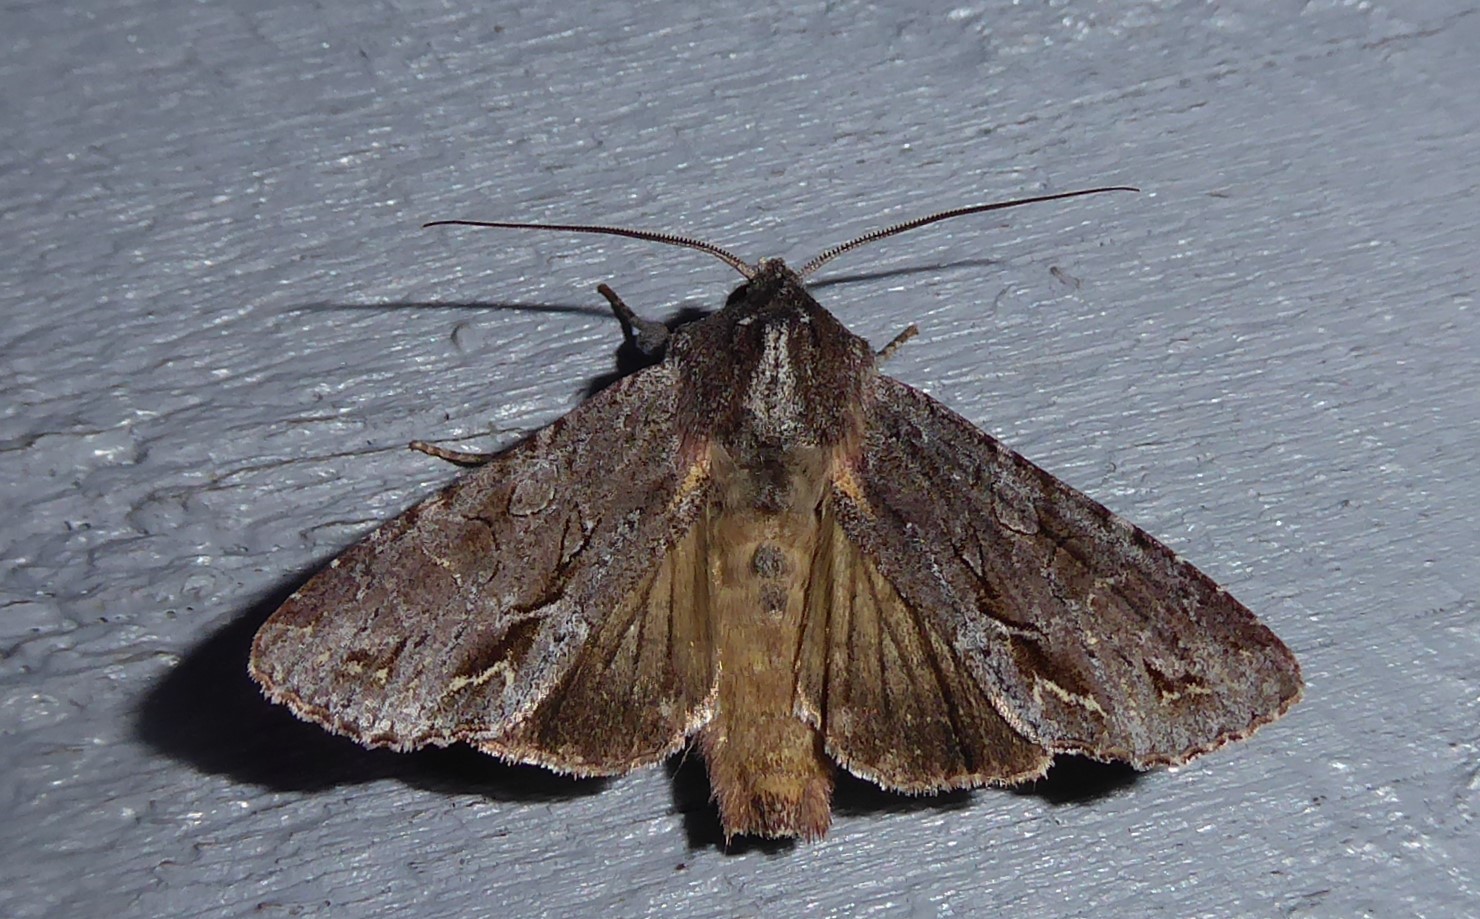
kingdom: Animalia
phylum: Arthropoda
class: Insecta
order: Lepidoptera
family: Noctuidae
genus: Ichneutica
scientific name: Ichneutica
